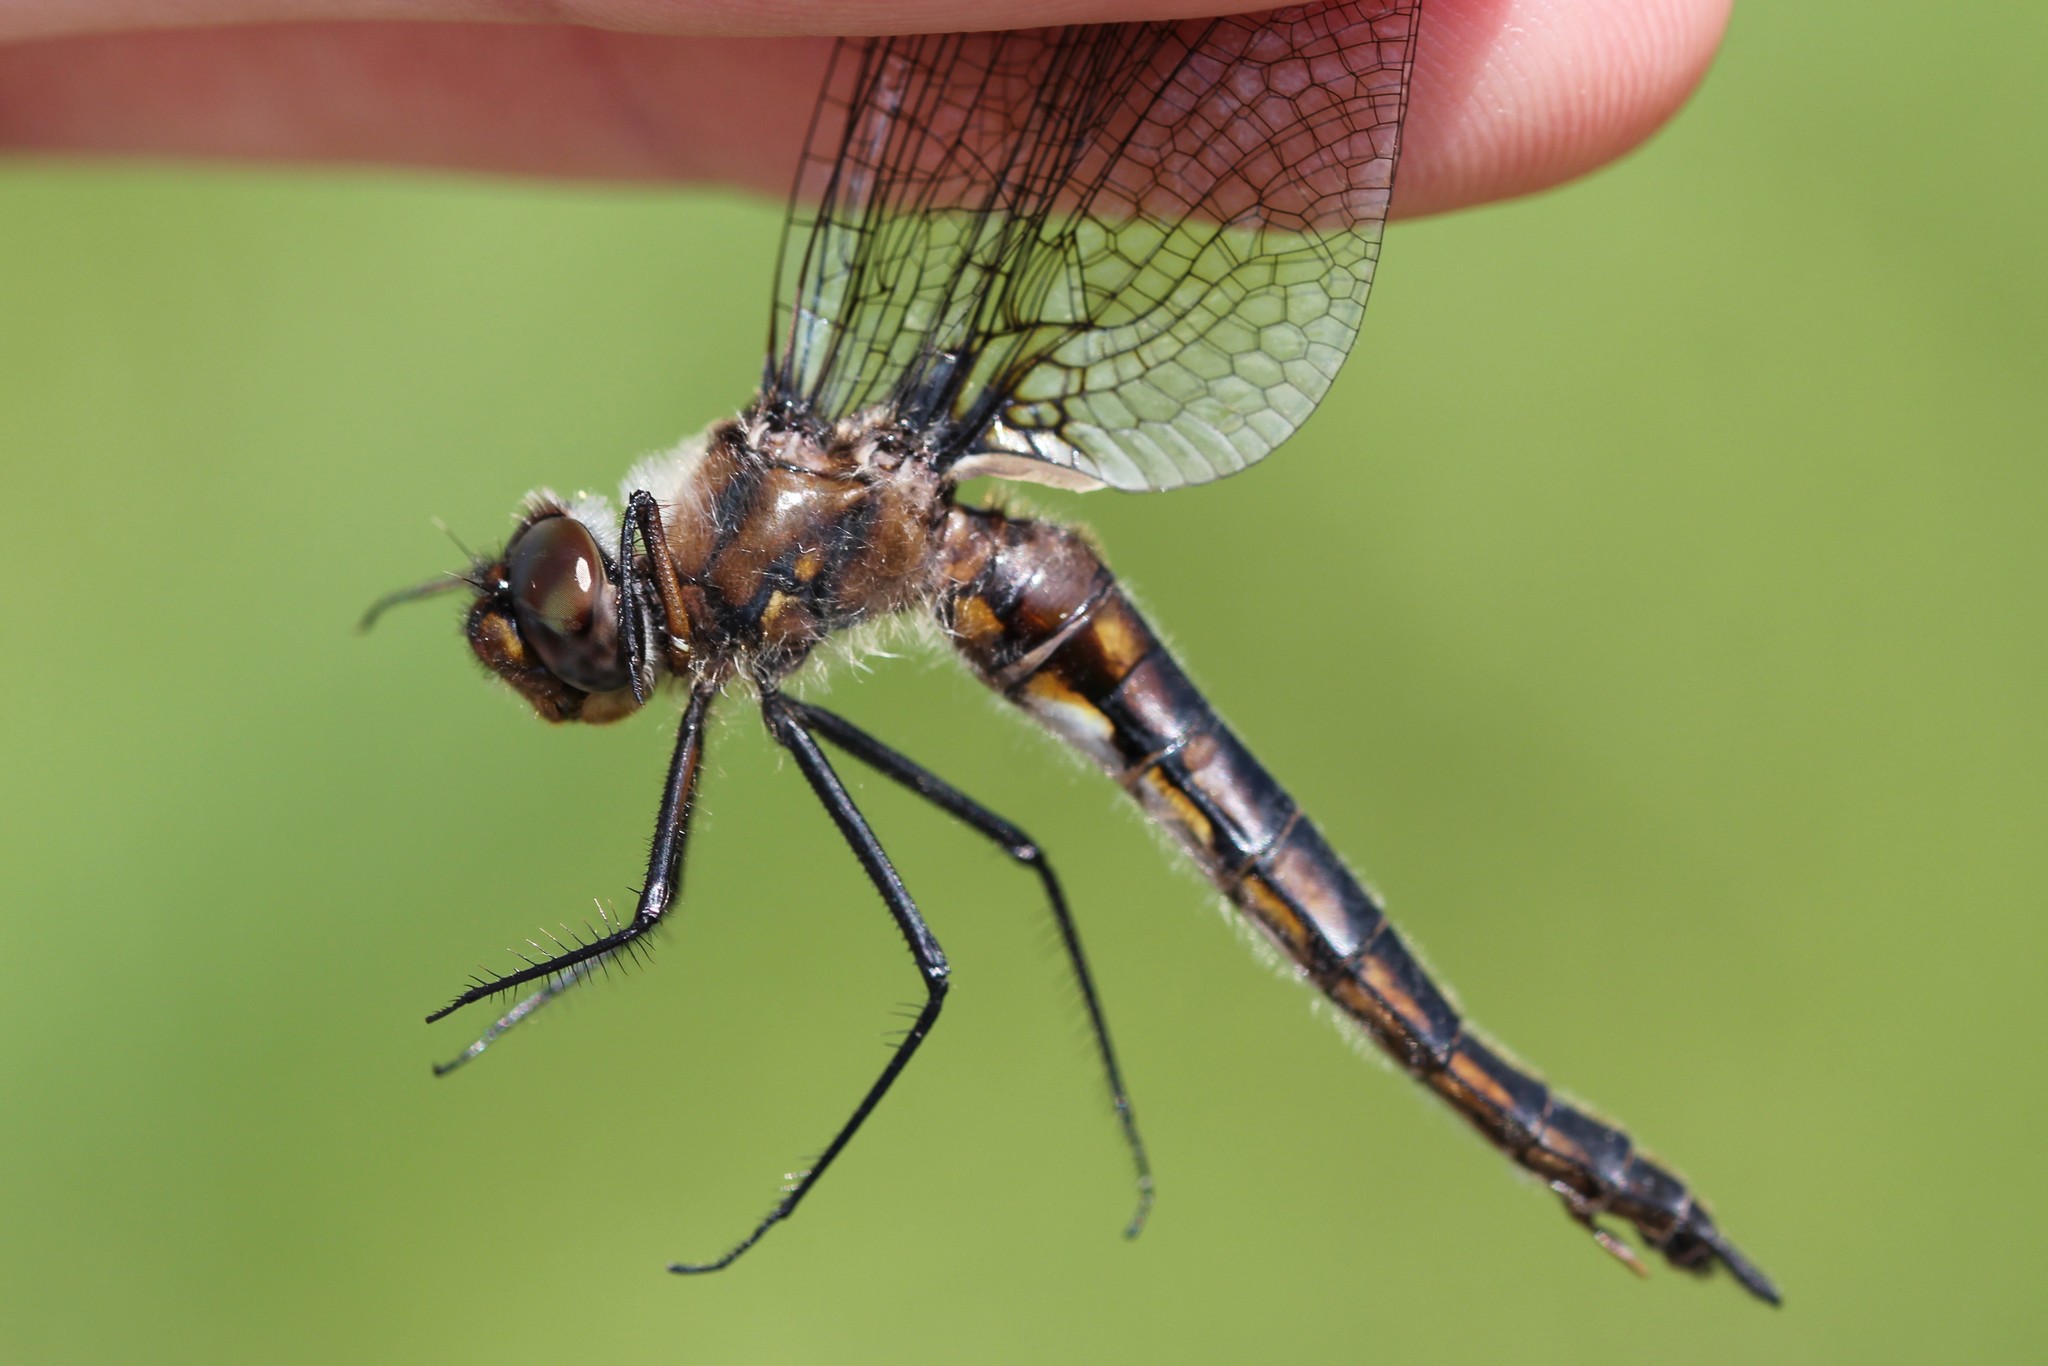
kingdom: Animalia
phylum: Arthropoda
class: Insecta
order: Odonata
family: Corduliidae
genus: Epitheca
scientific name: Epitheca spinigera
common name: Spiny baskettail
